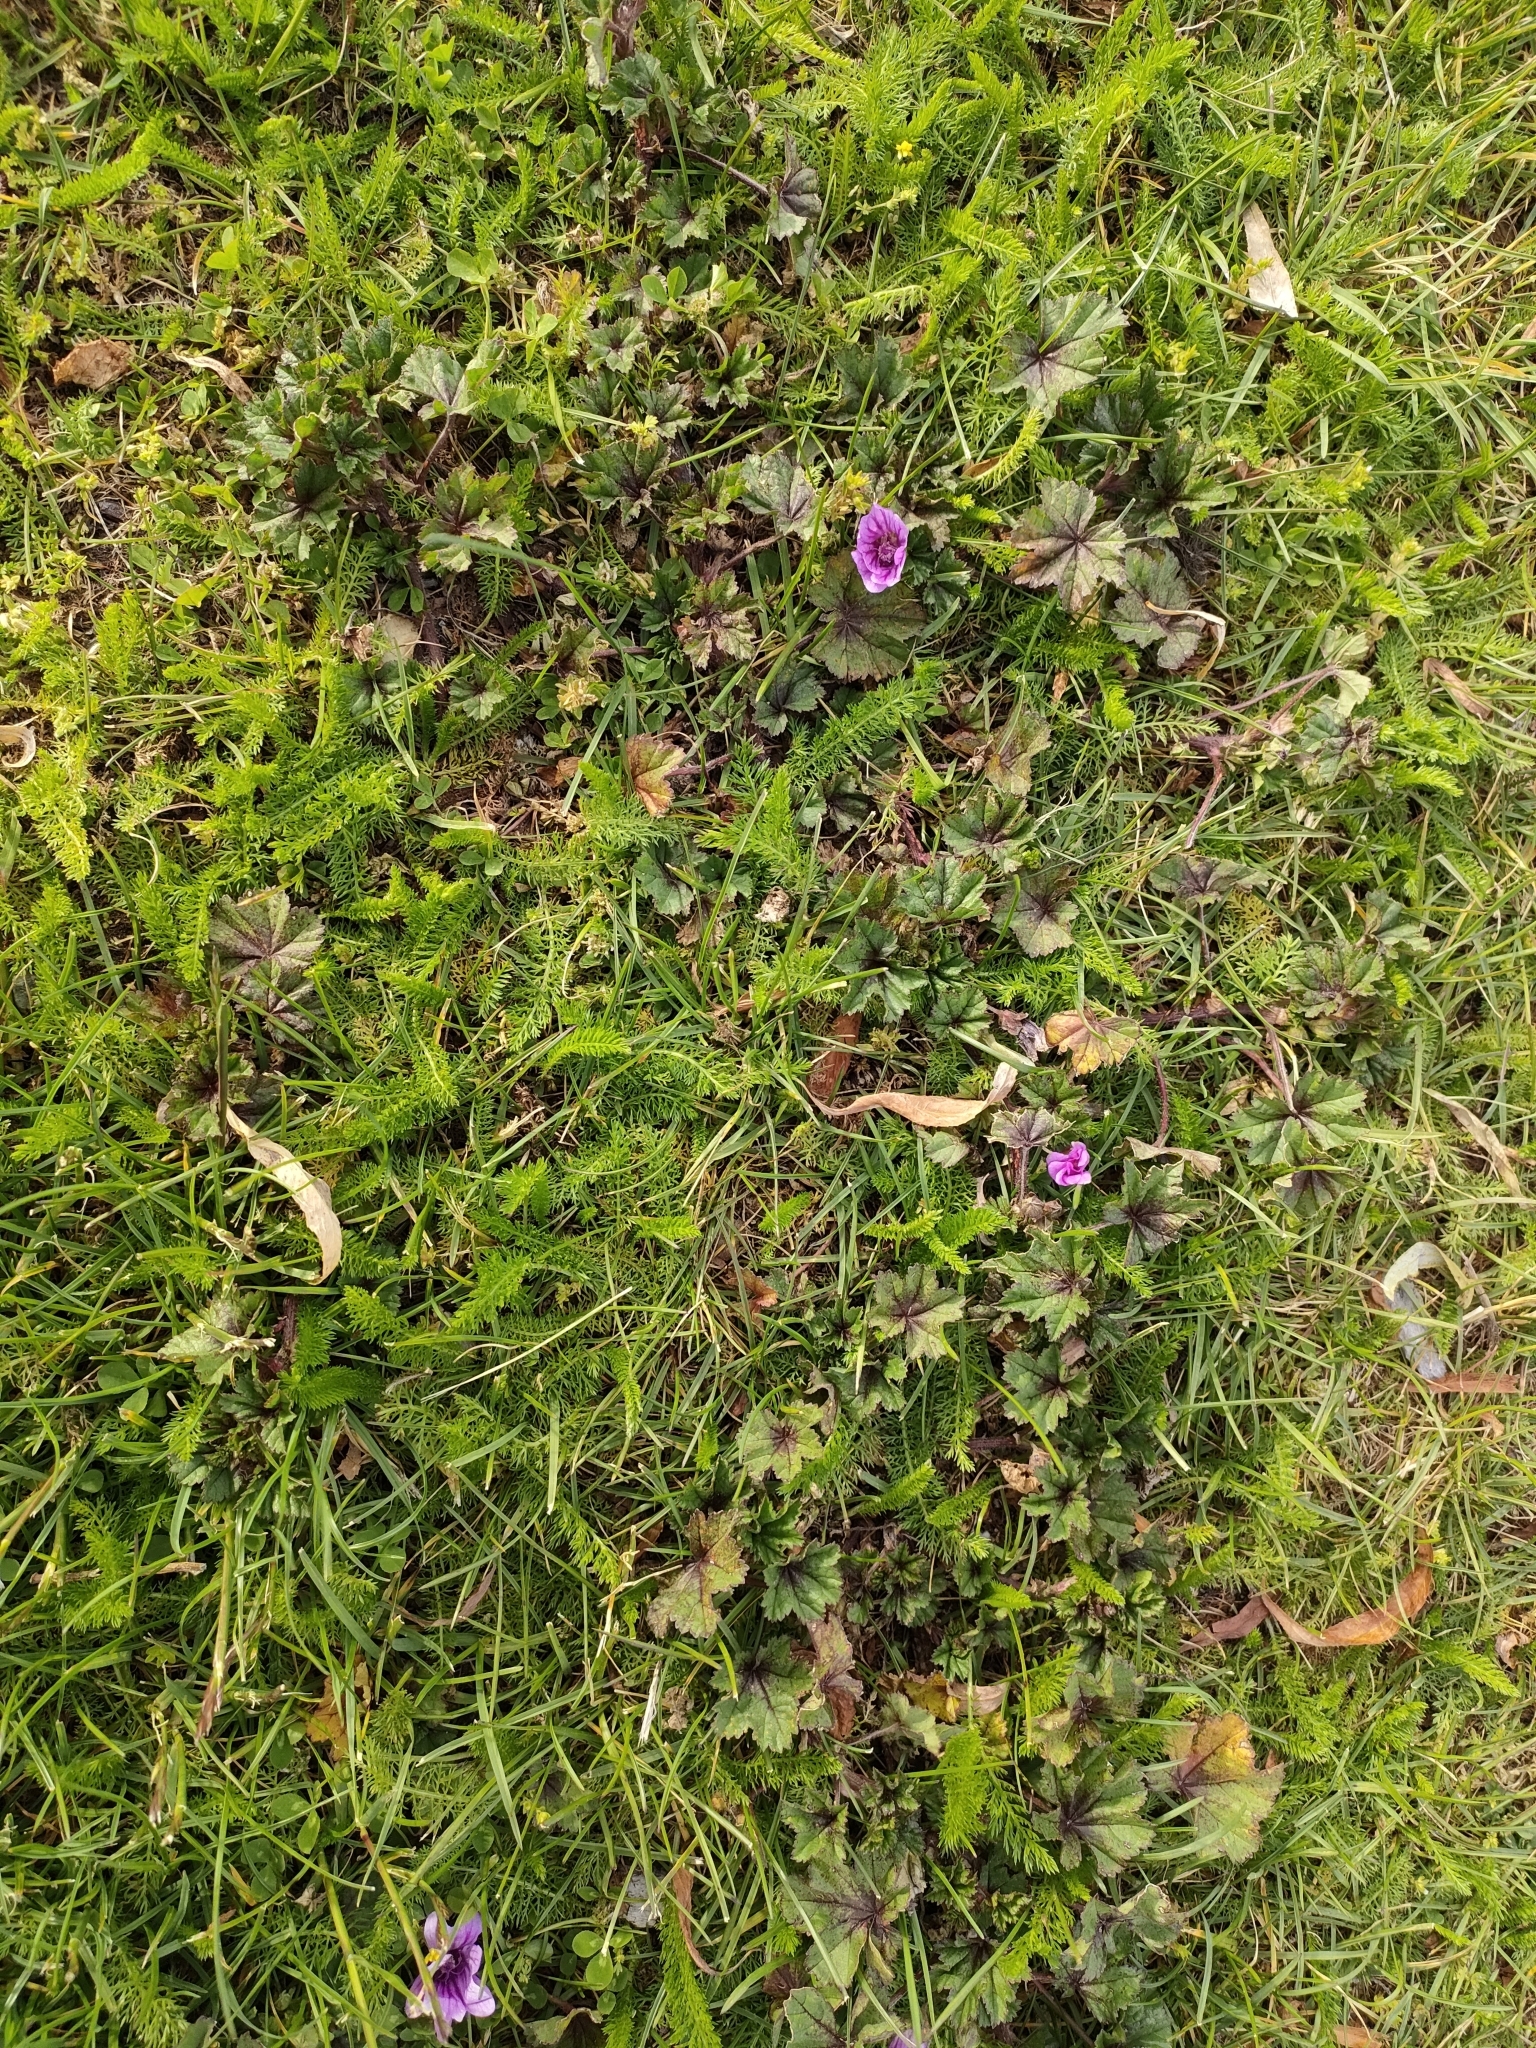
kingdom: Plantae
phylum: Tracheophyta
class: Magnoliopsida
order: Malvales
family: Malvaceae
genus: Malva
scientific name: Malva sylvestris
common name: Common mallow
